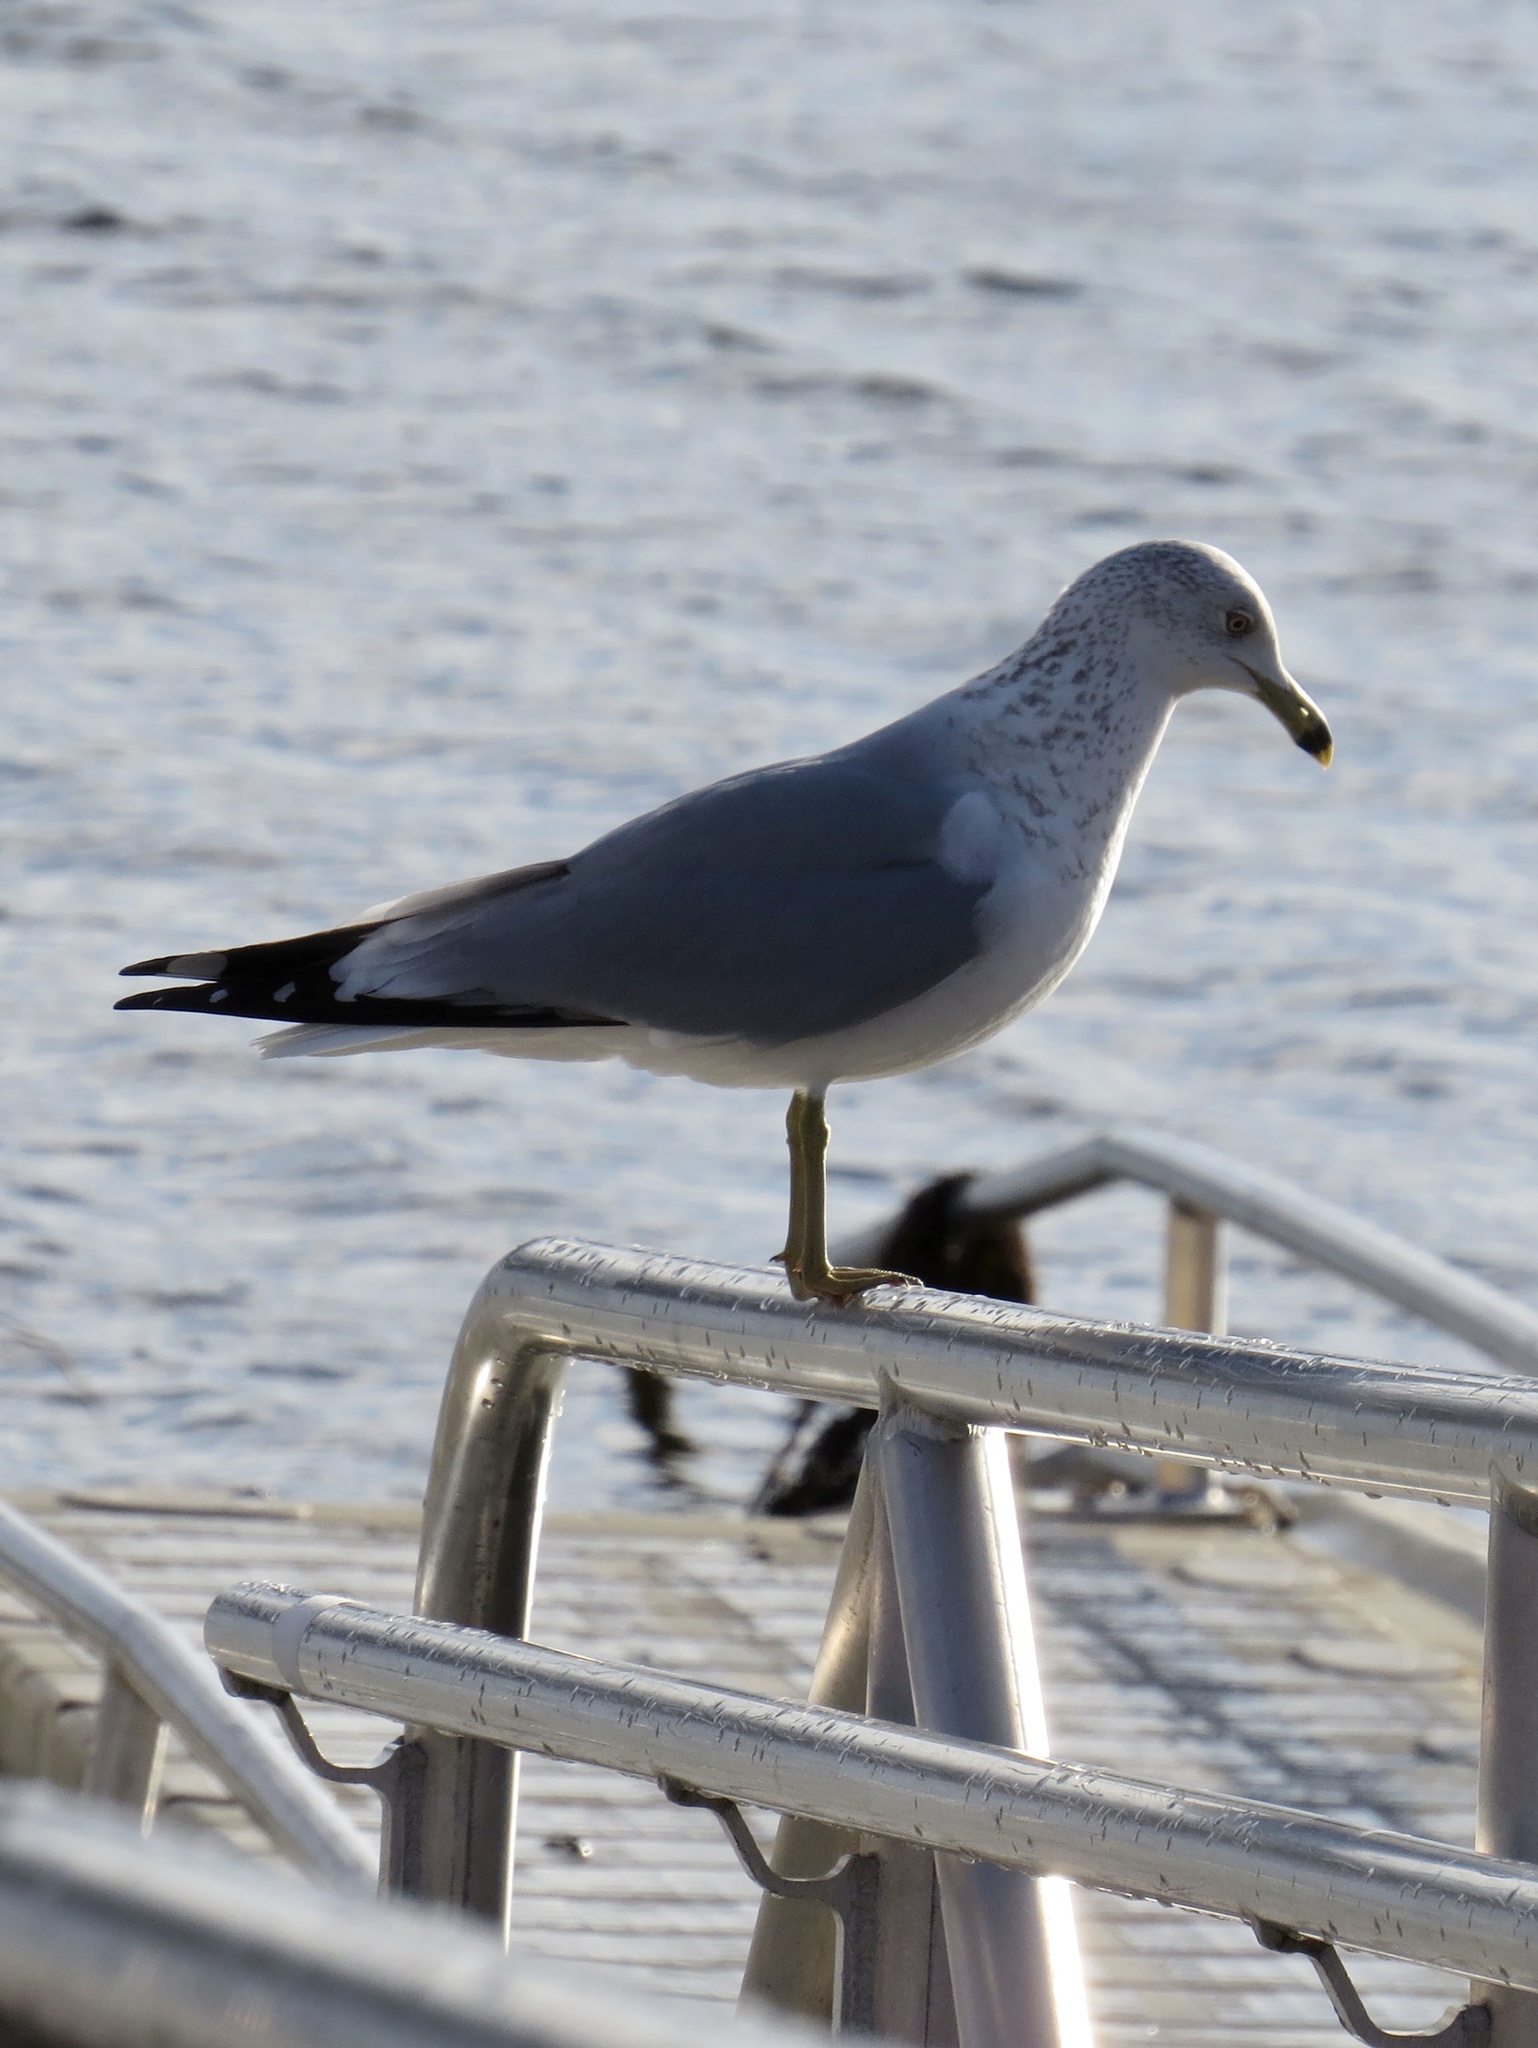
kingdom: Animalia
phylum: Chordata
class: Aves
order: Charadriiformes
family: Laridae
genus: Larus
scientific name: Larus delawarensis
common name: Ring-billed gull
